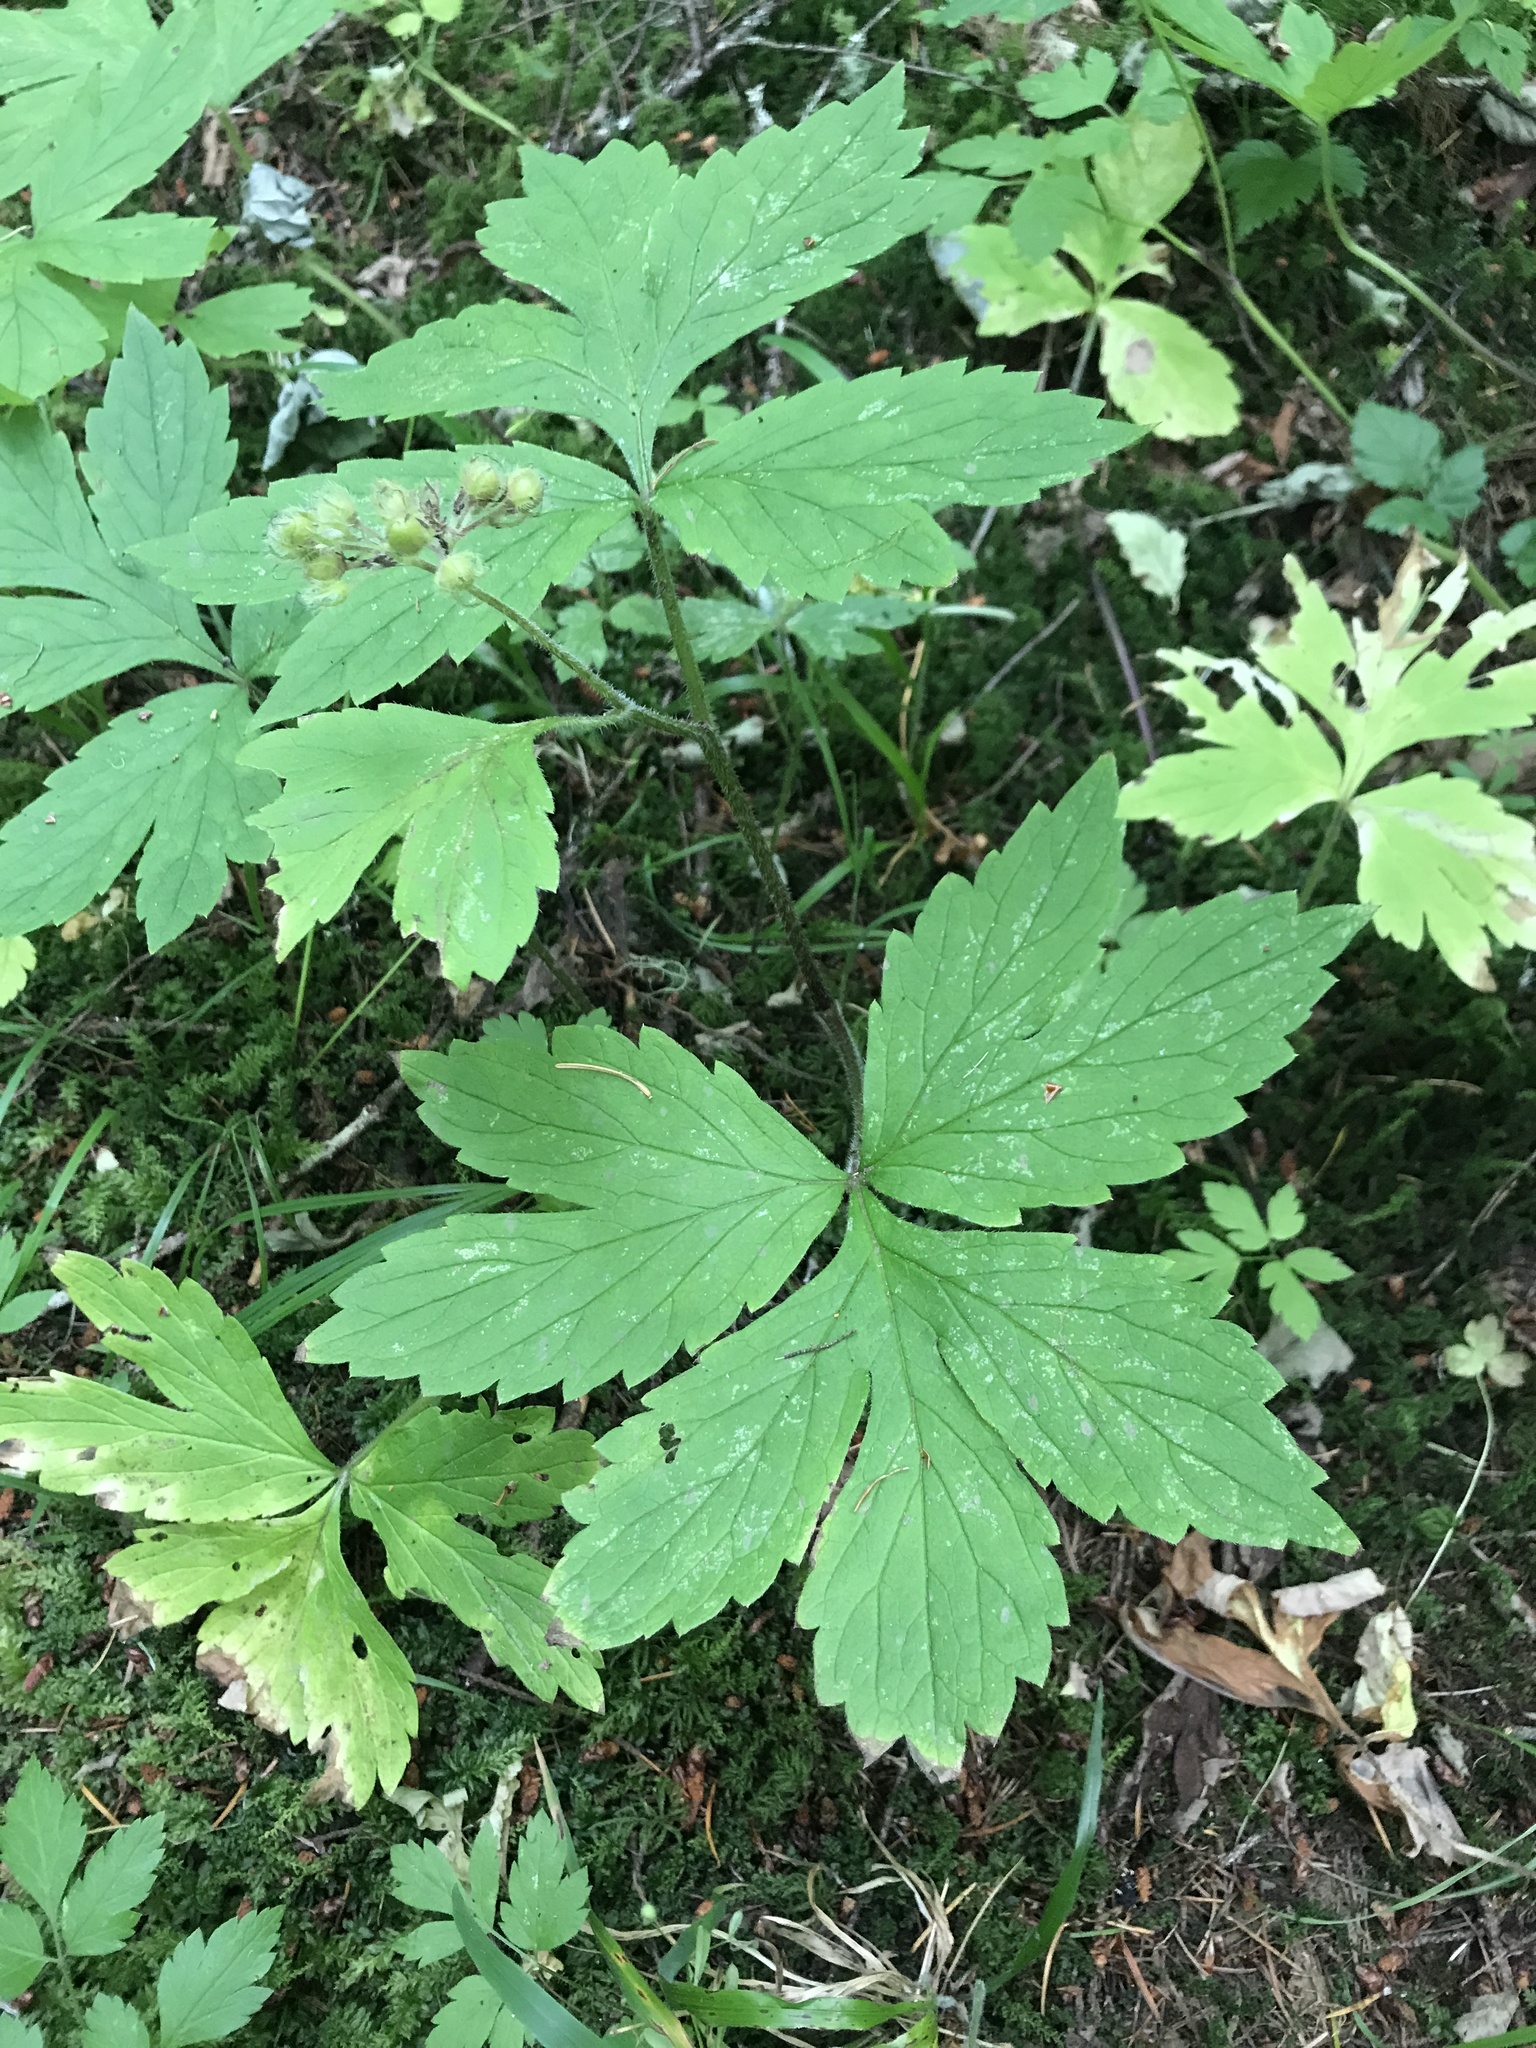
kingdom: Plantae
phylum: Tracheophyta
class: Magnoliopsida
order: Boraginales
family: Hydrophyllaceae
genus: Hydrophyllum
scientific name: Hydrophyllum tenuipes
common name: Pacific waterleaf
